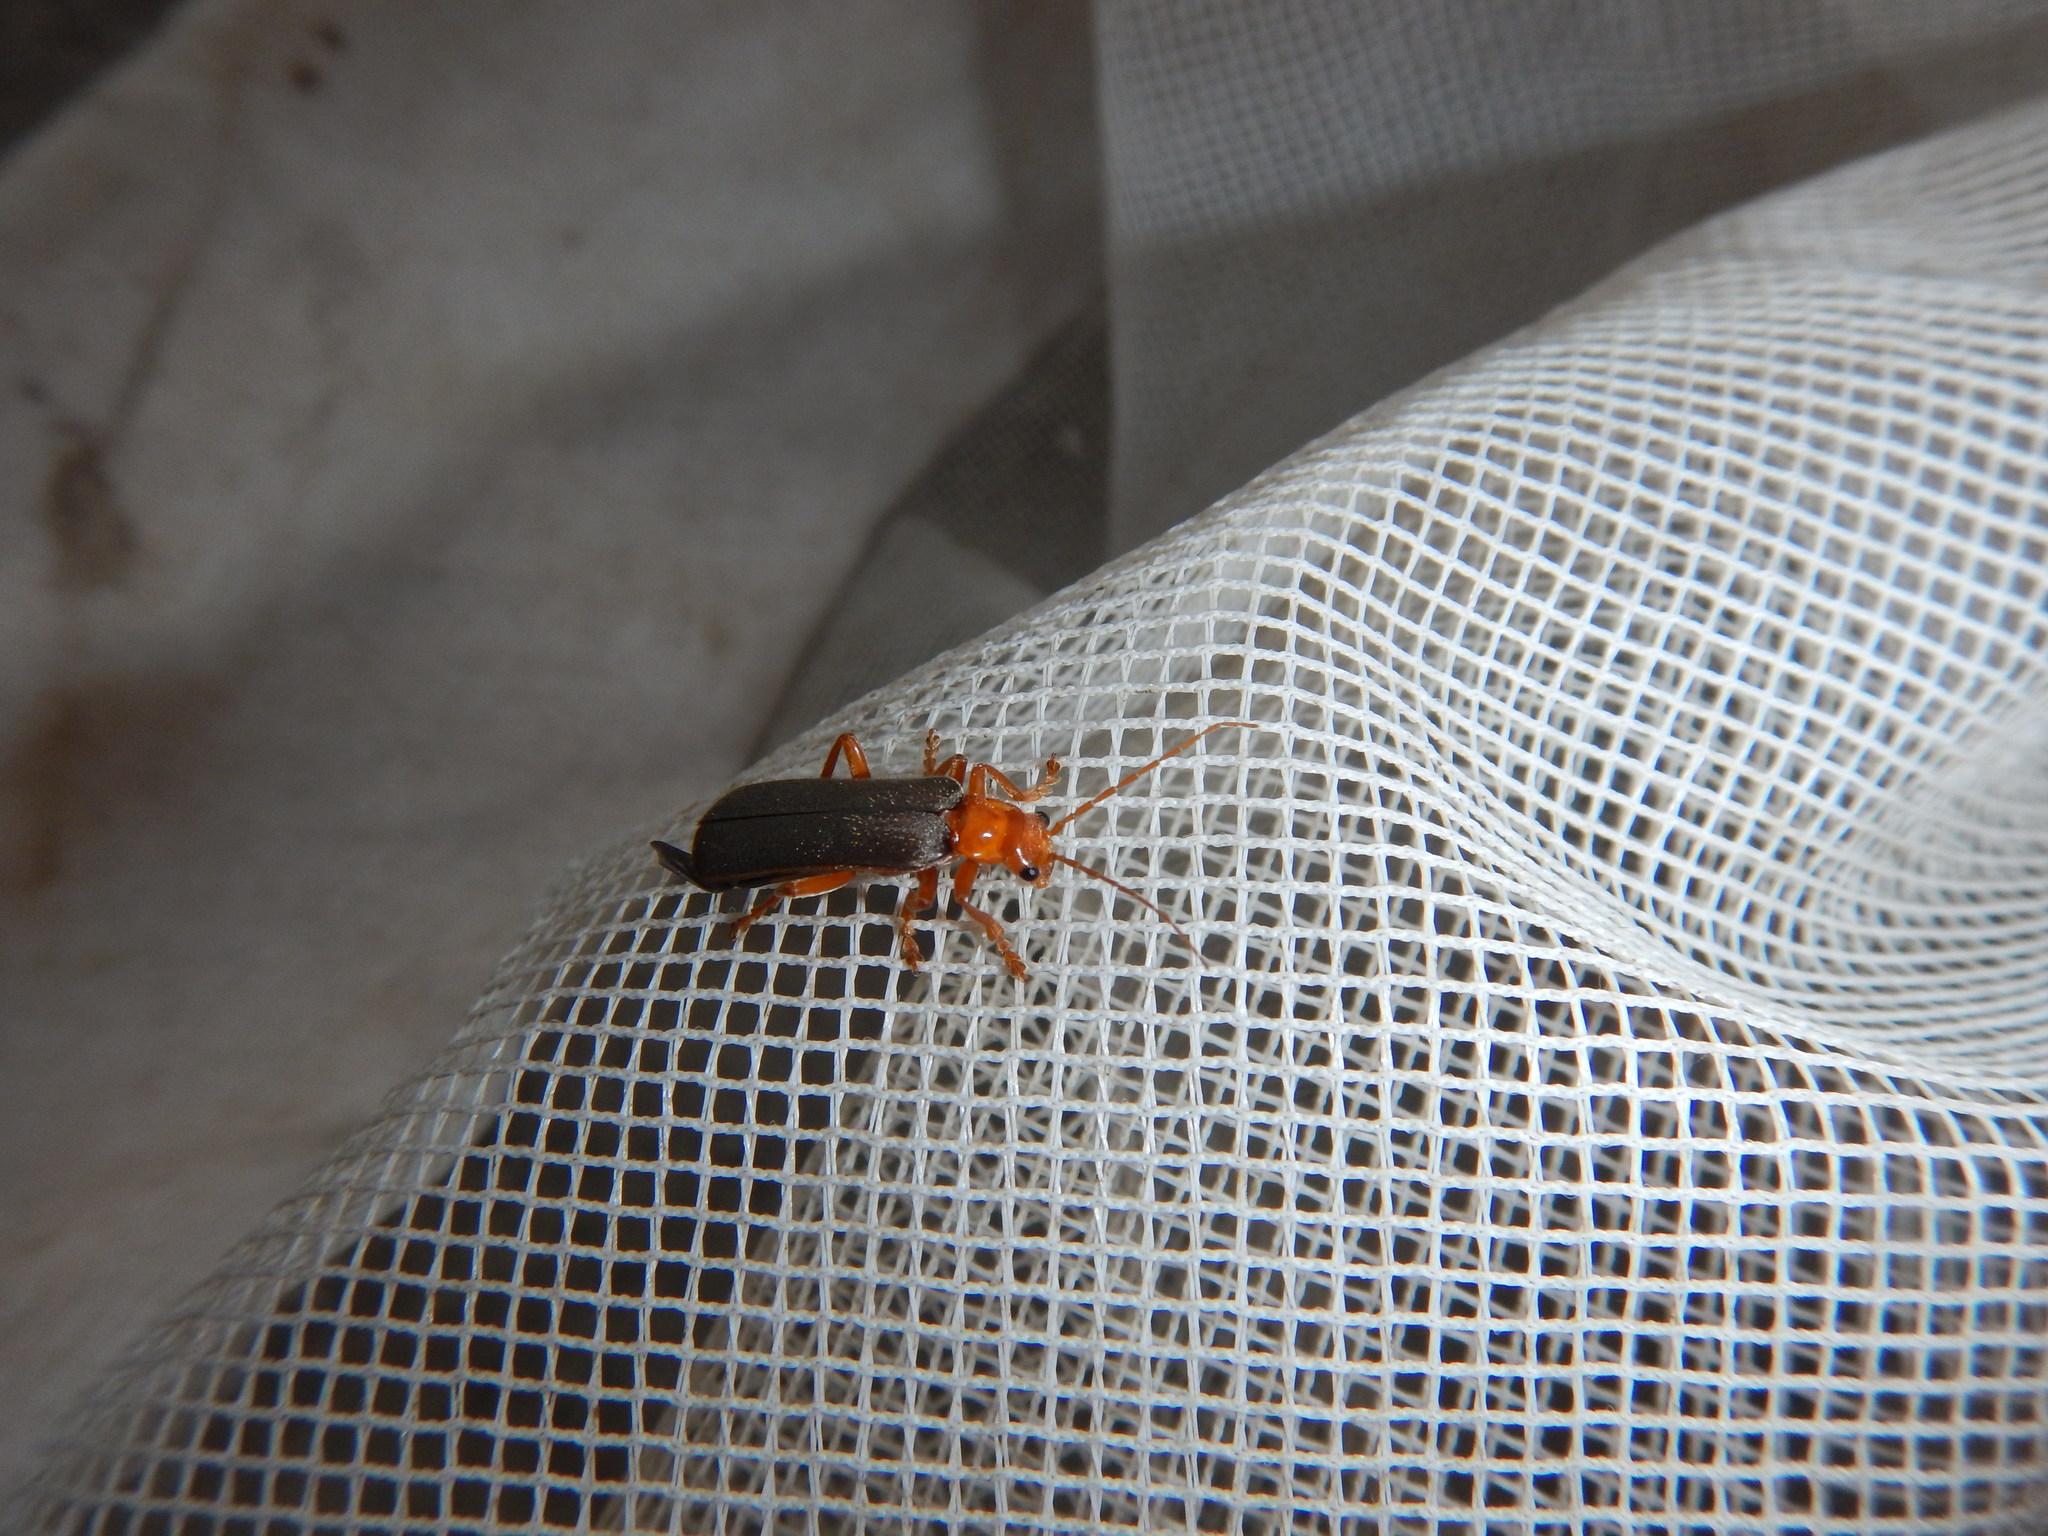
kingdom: Animalia
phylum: Arthropoda
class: Insecta
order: Coleoptera
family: Cantharidae
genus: Pacificanthia
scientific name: Pacificanthia rotundicollis
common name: Brown leatherwing beetle
